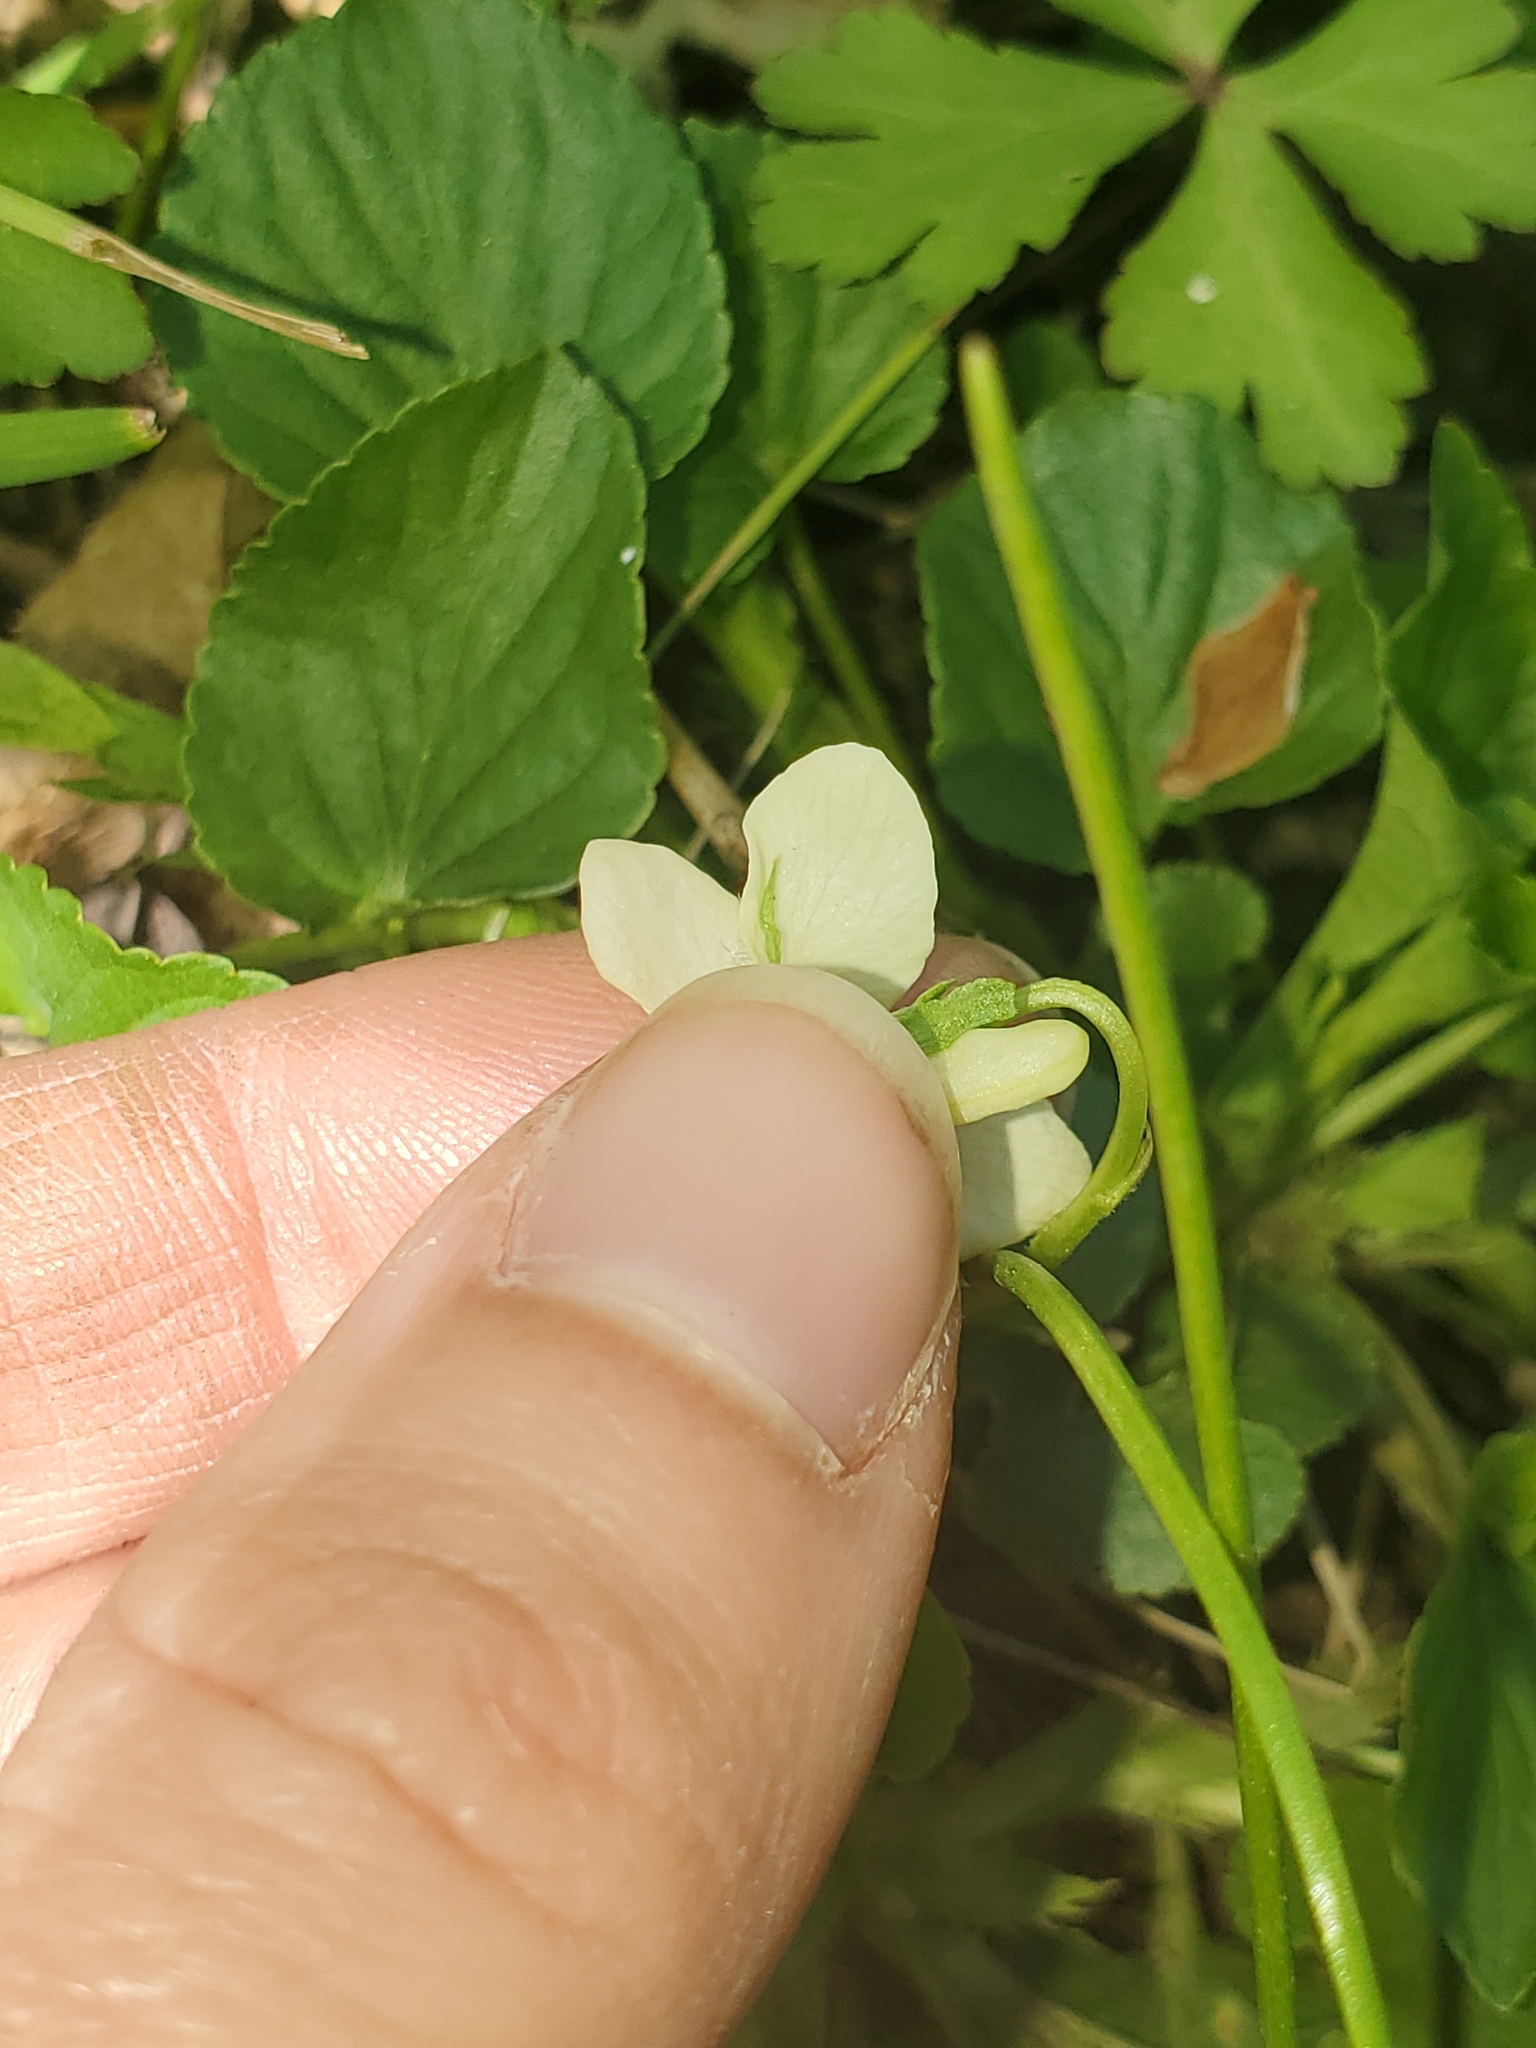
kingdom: Plantae
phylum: Tracheophyta
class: Magnoliopsida
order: Malpighiales
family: Violaceae
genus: Viola
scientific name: Viola striata
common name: Cream violet
